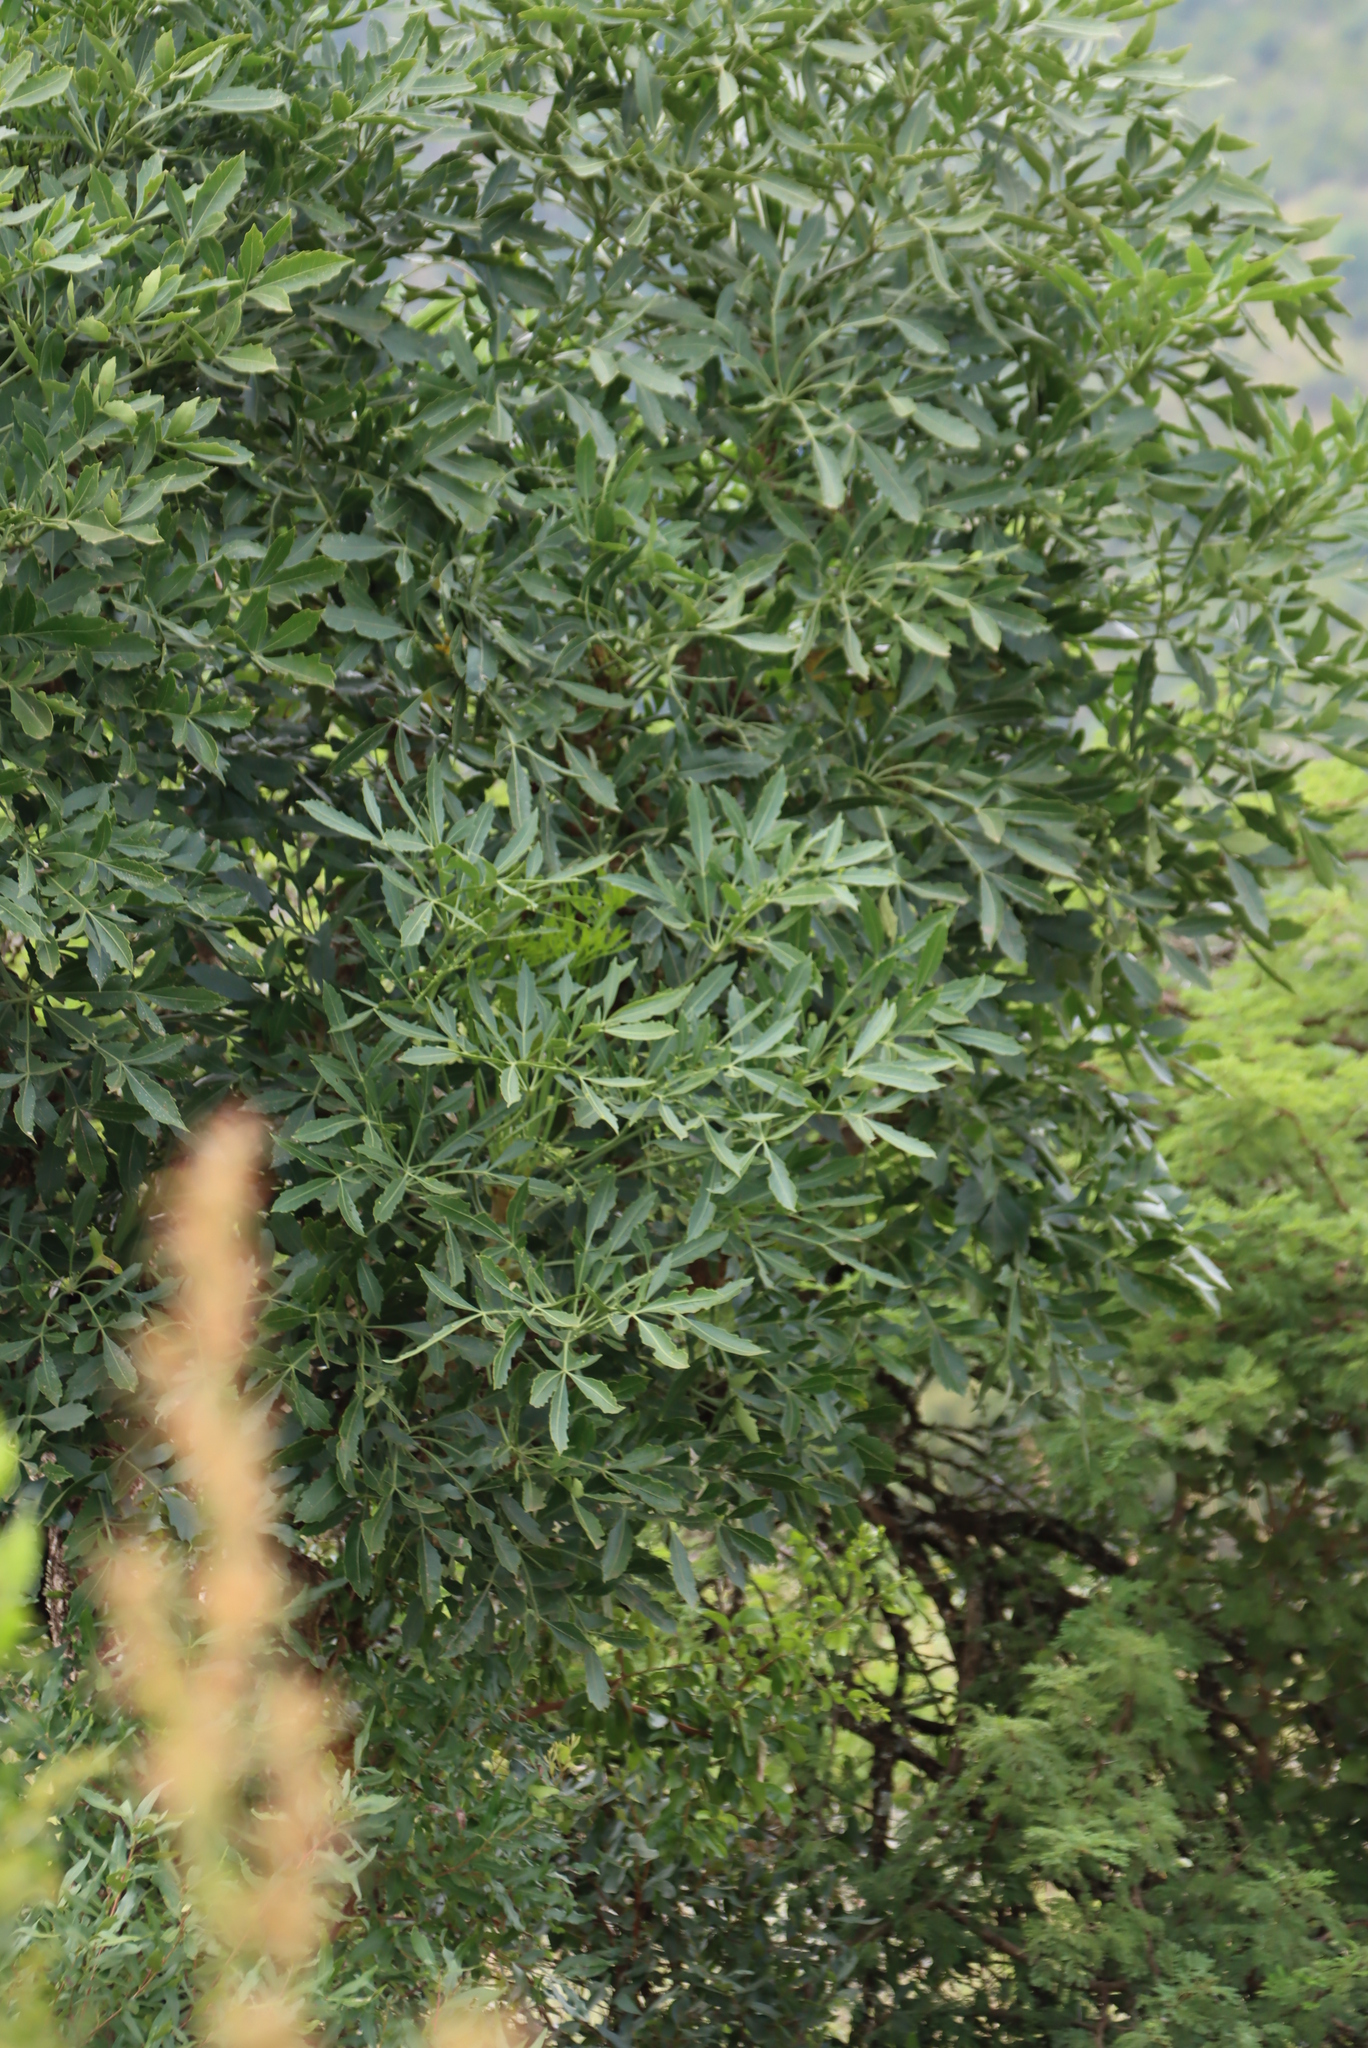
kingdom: Plantae
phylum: Tracheophyta
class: Magnoliopsida
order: Apiales
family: Araliaceae
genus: Cussonia
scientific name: Cussonia spicata
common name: Common cabbagetree
